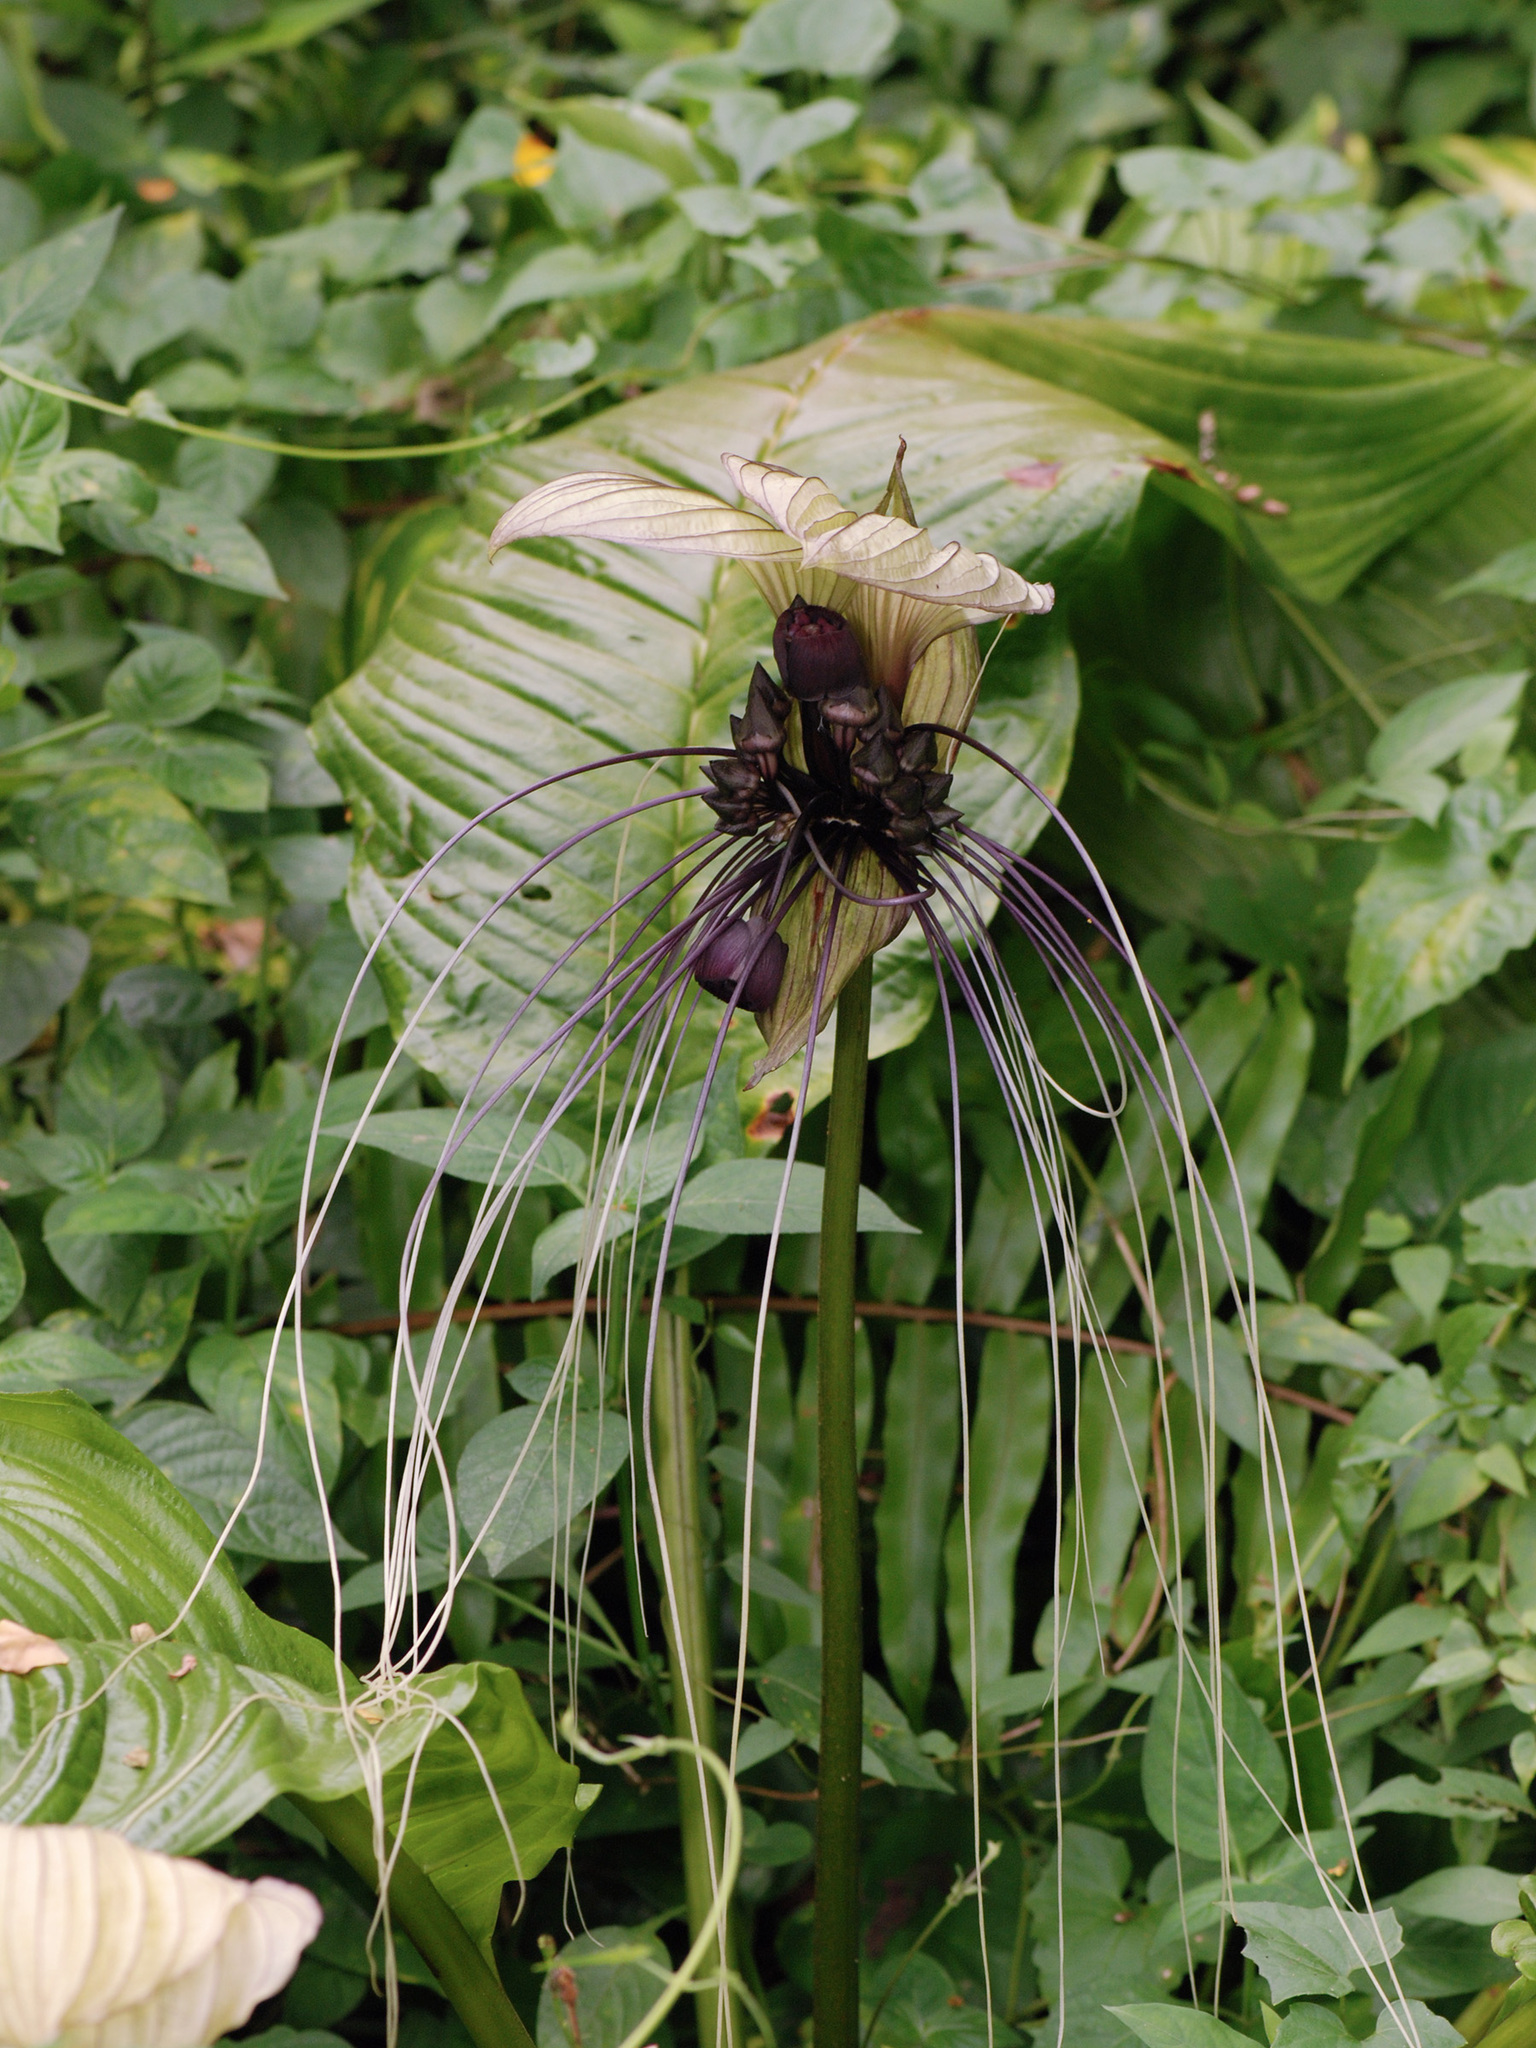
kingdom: Plantae
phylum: Tracheophyta
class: Liliopsida
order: Dioscoreales
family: Dioscoreaceae
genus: Tacca
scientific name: Tacca integrifolia
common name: Batplant
